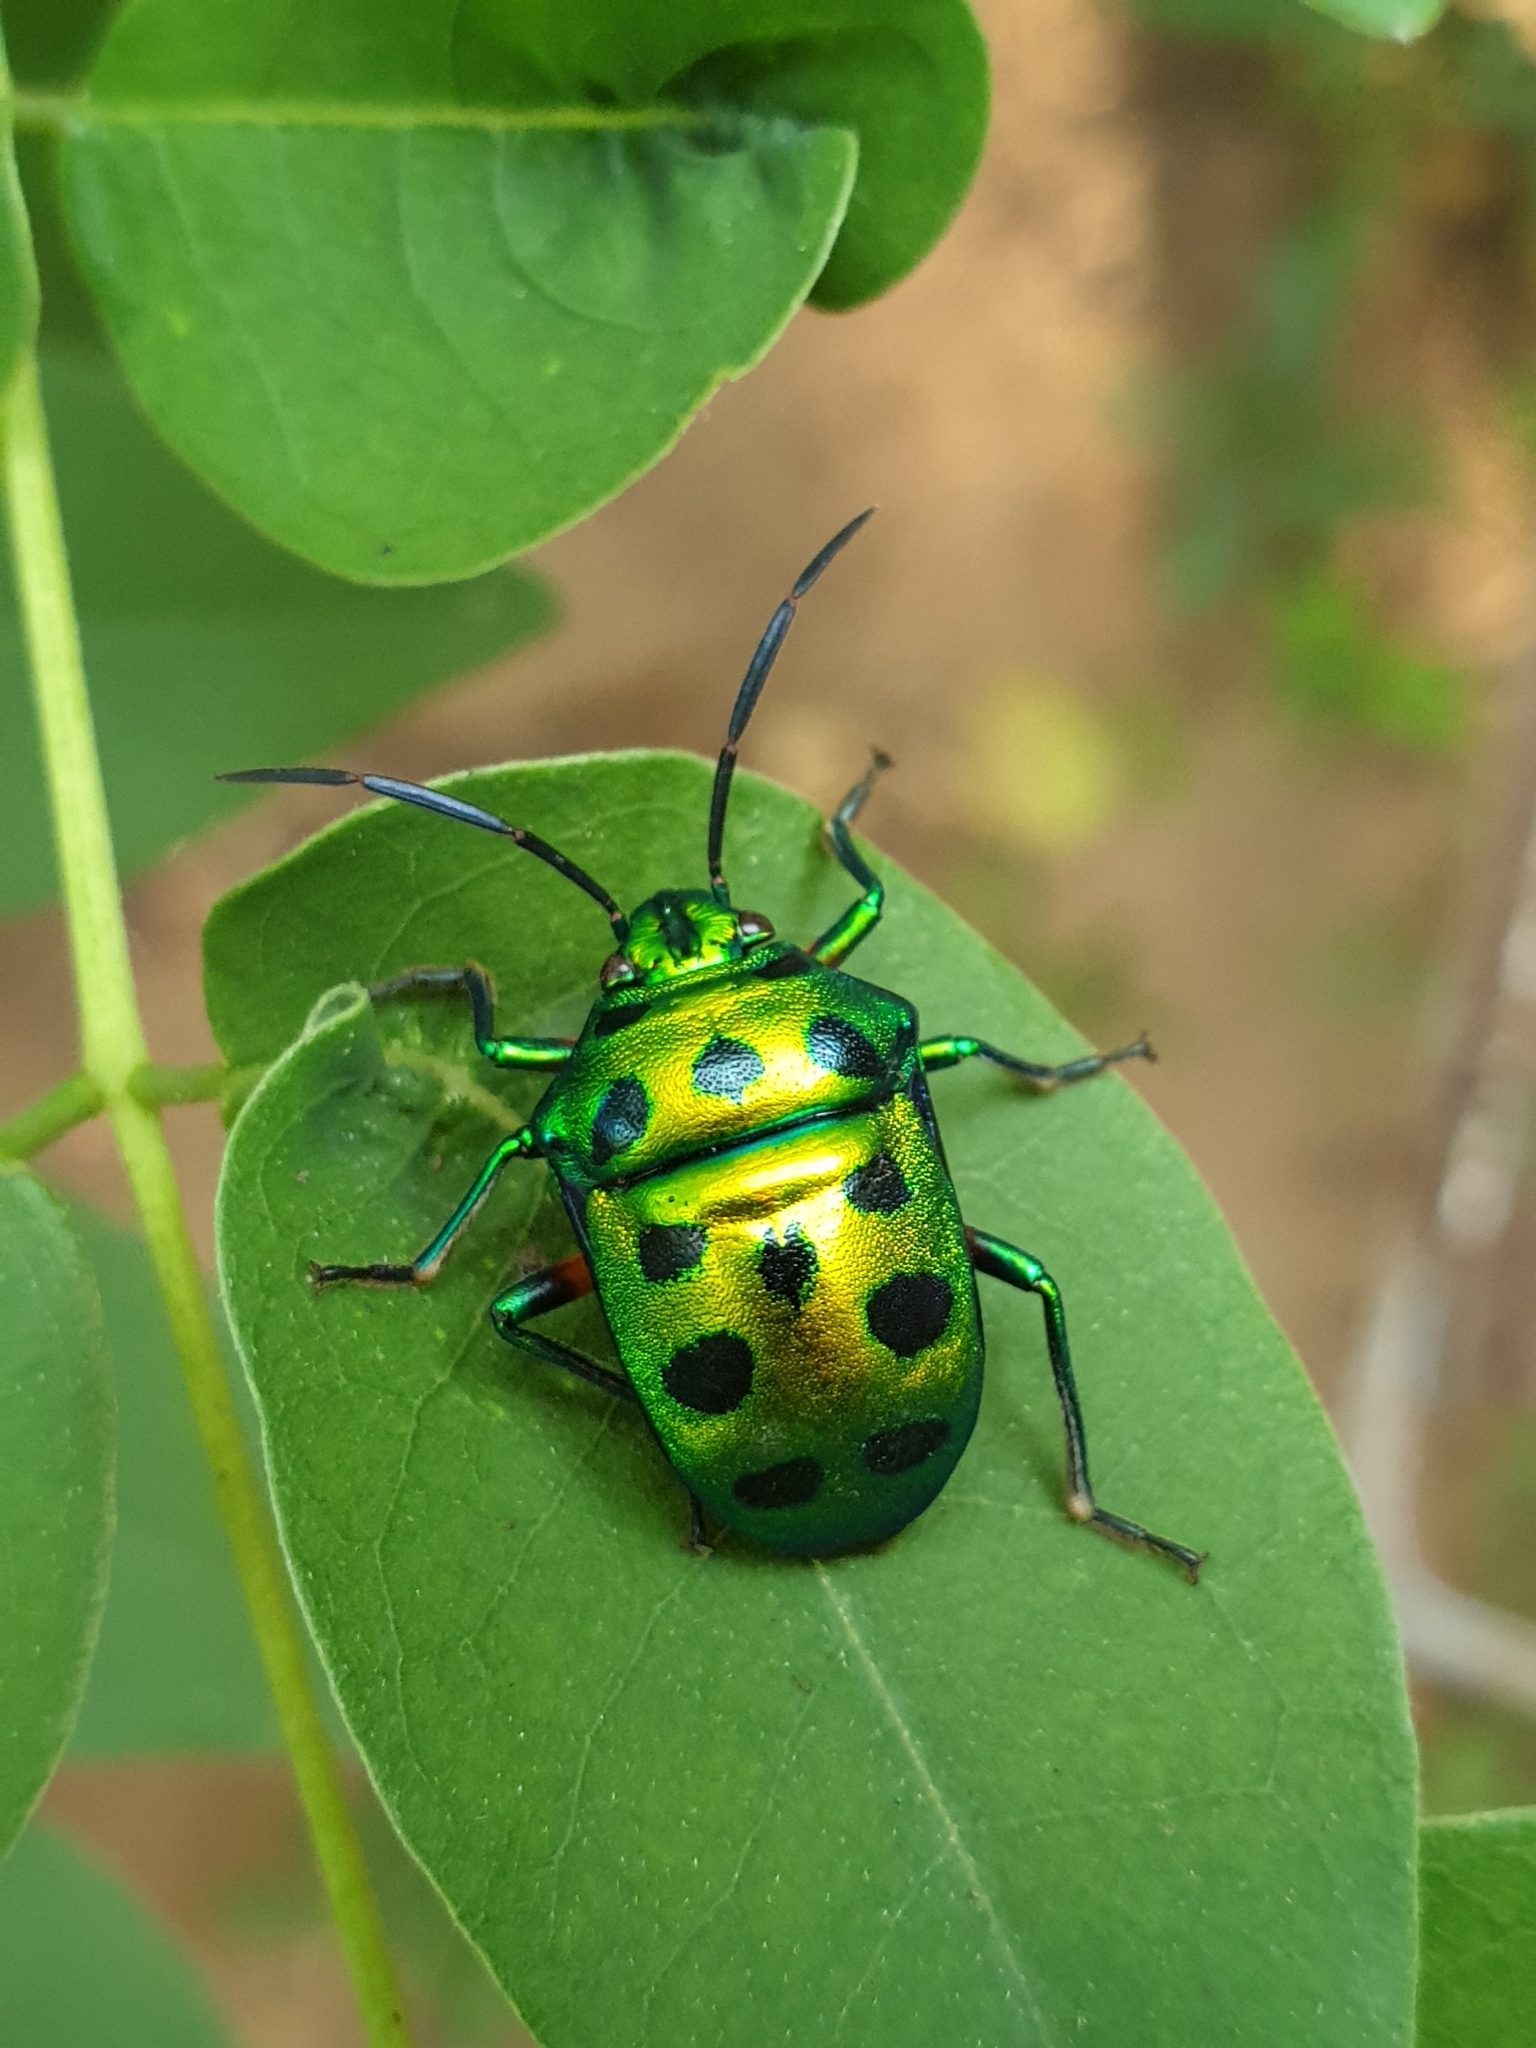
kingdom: Animalia
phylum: Arthropoda
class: Insecta
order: Hemiptera
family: Scutelleridae
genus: Chrysocoris
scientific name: Chrysocoris purpureus
